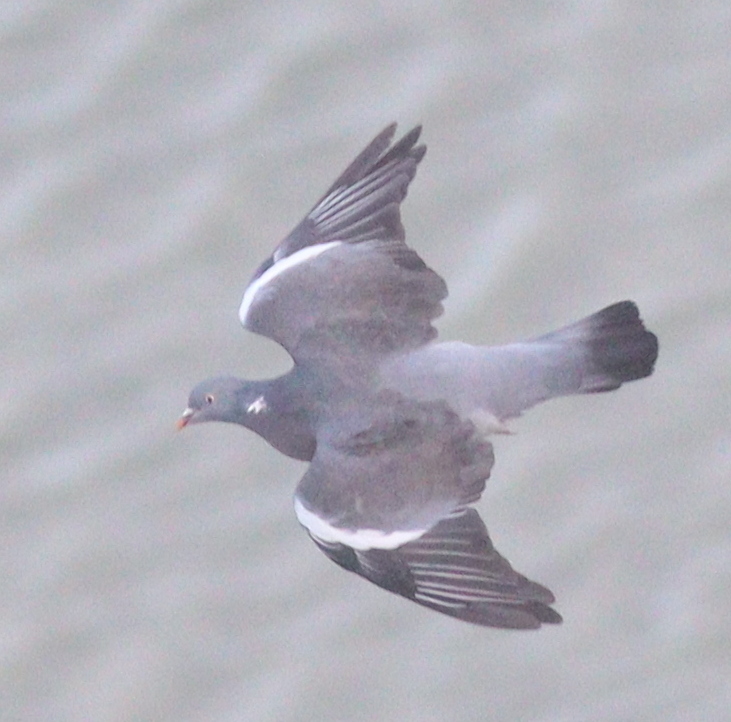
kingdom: Animalia
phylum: Chordata
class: Aves
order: Columbiformes
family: Columbidae
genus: Columba
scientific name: Columba palumbus
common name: Common wood pigeon
